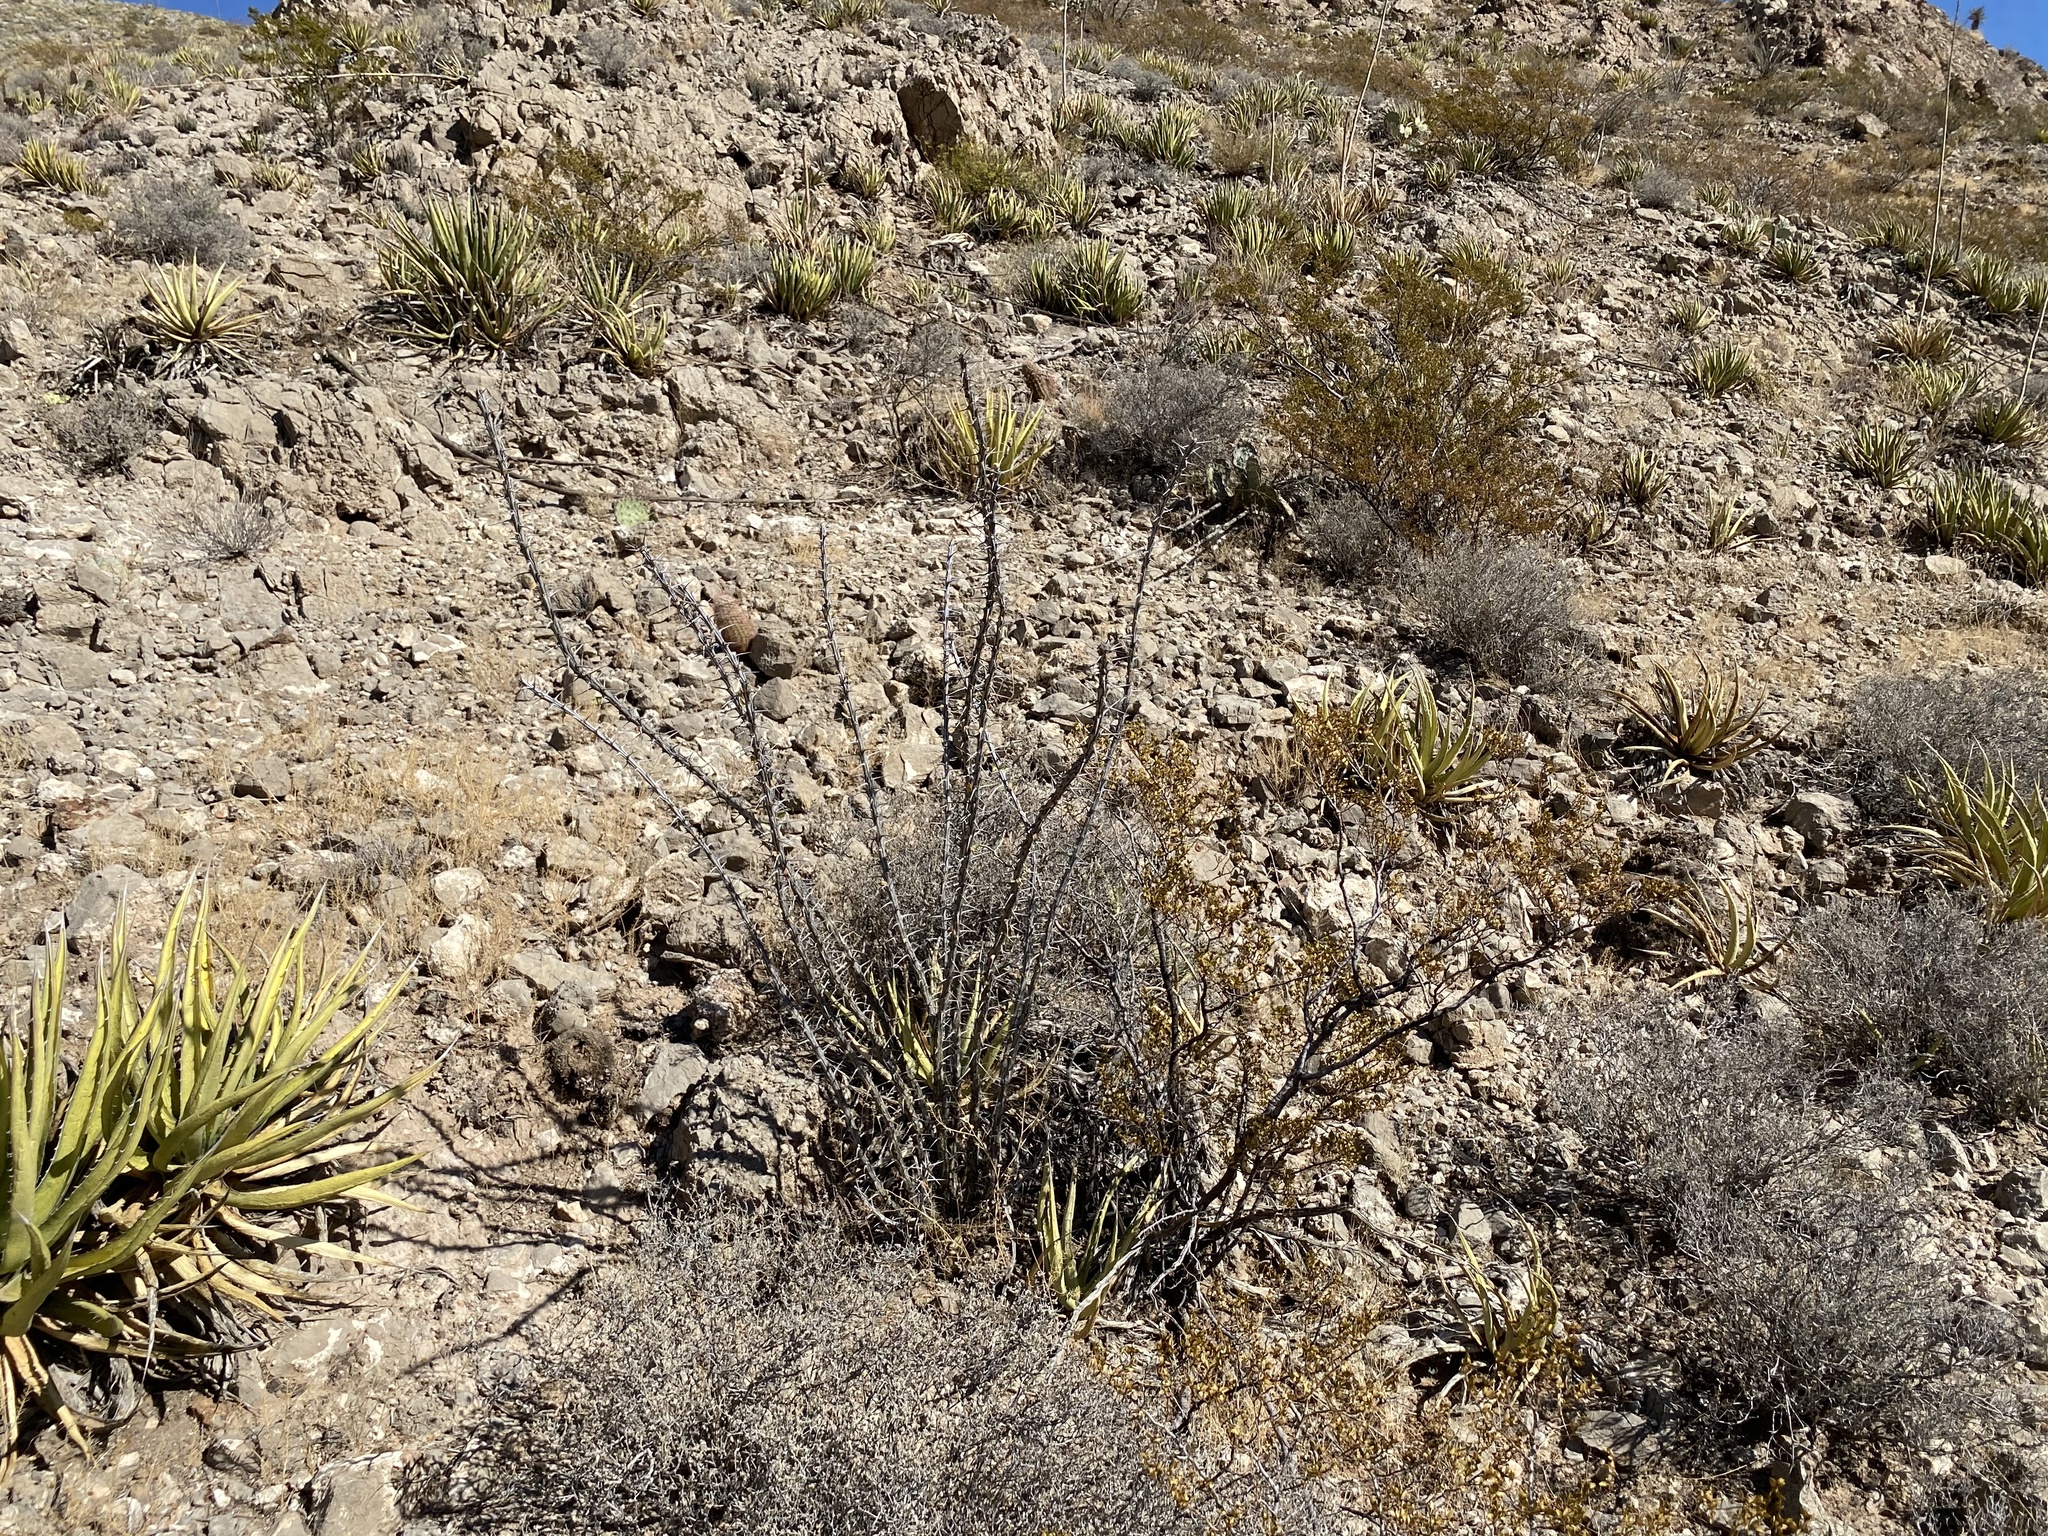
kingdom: Plantae
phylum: Tracheophyta
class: Magnoliopsida
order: Ericales
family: Fouquieriaceae
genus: Fouquieria
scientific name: Fouquieria splendens
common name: Vine-cactus
